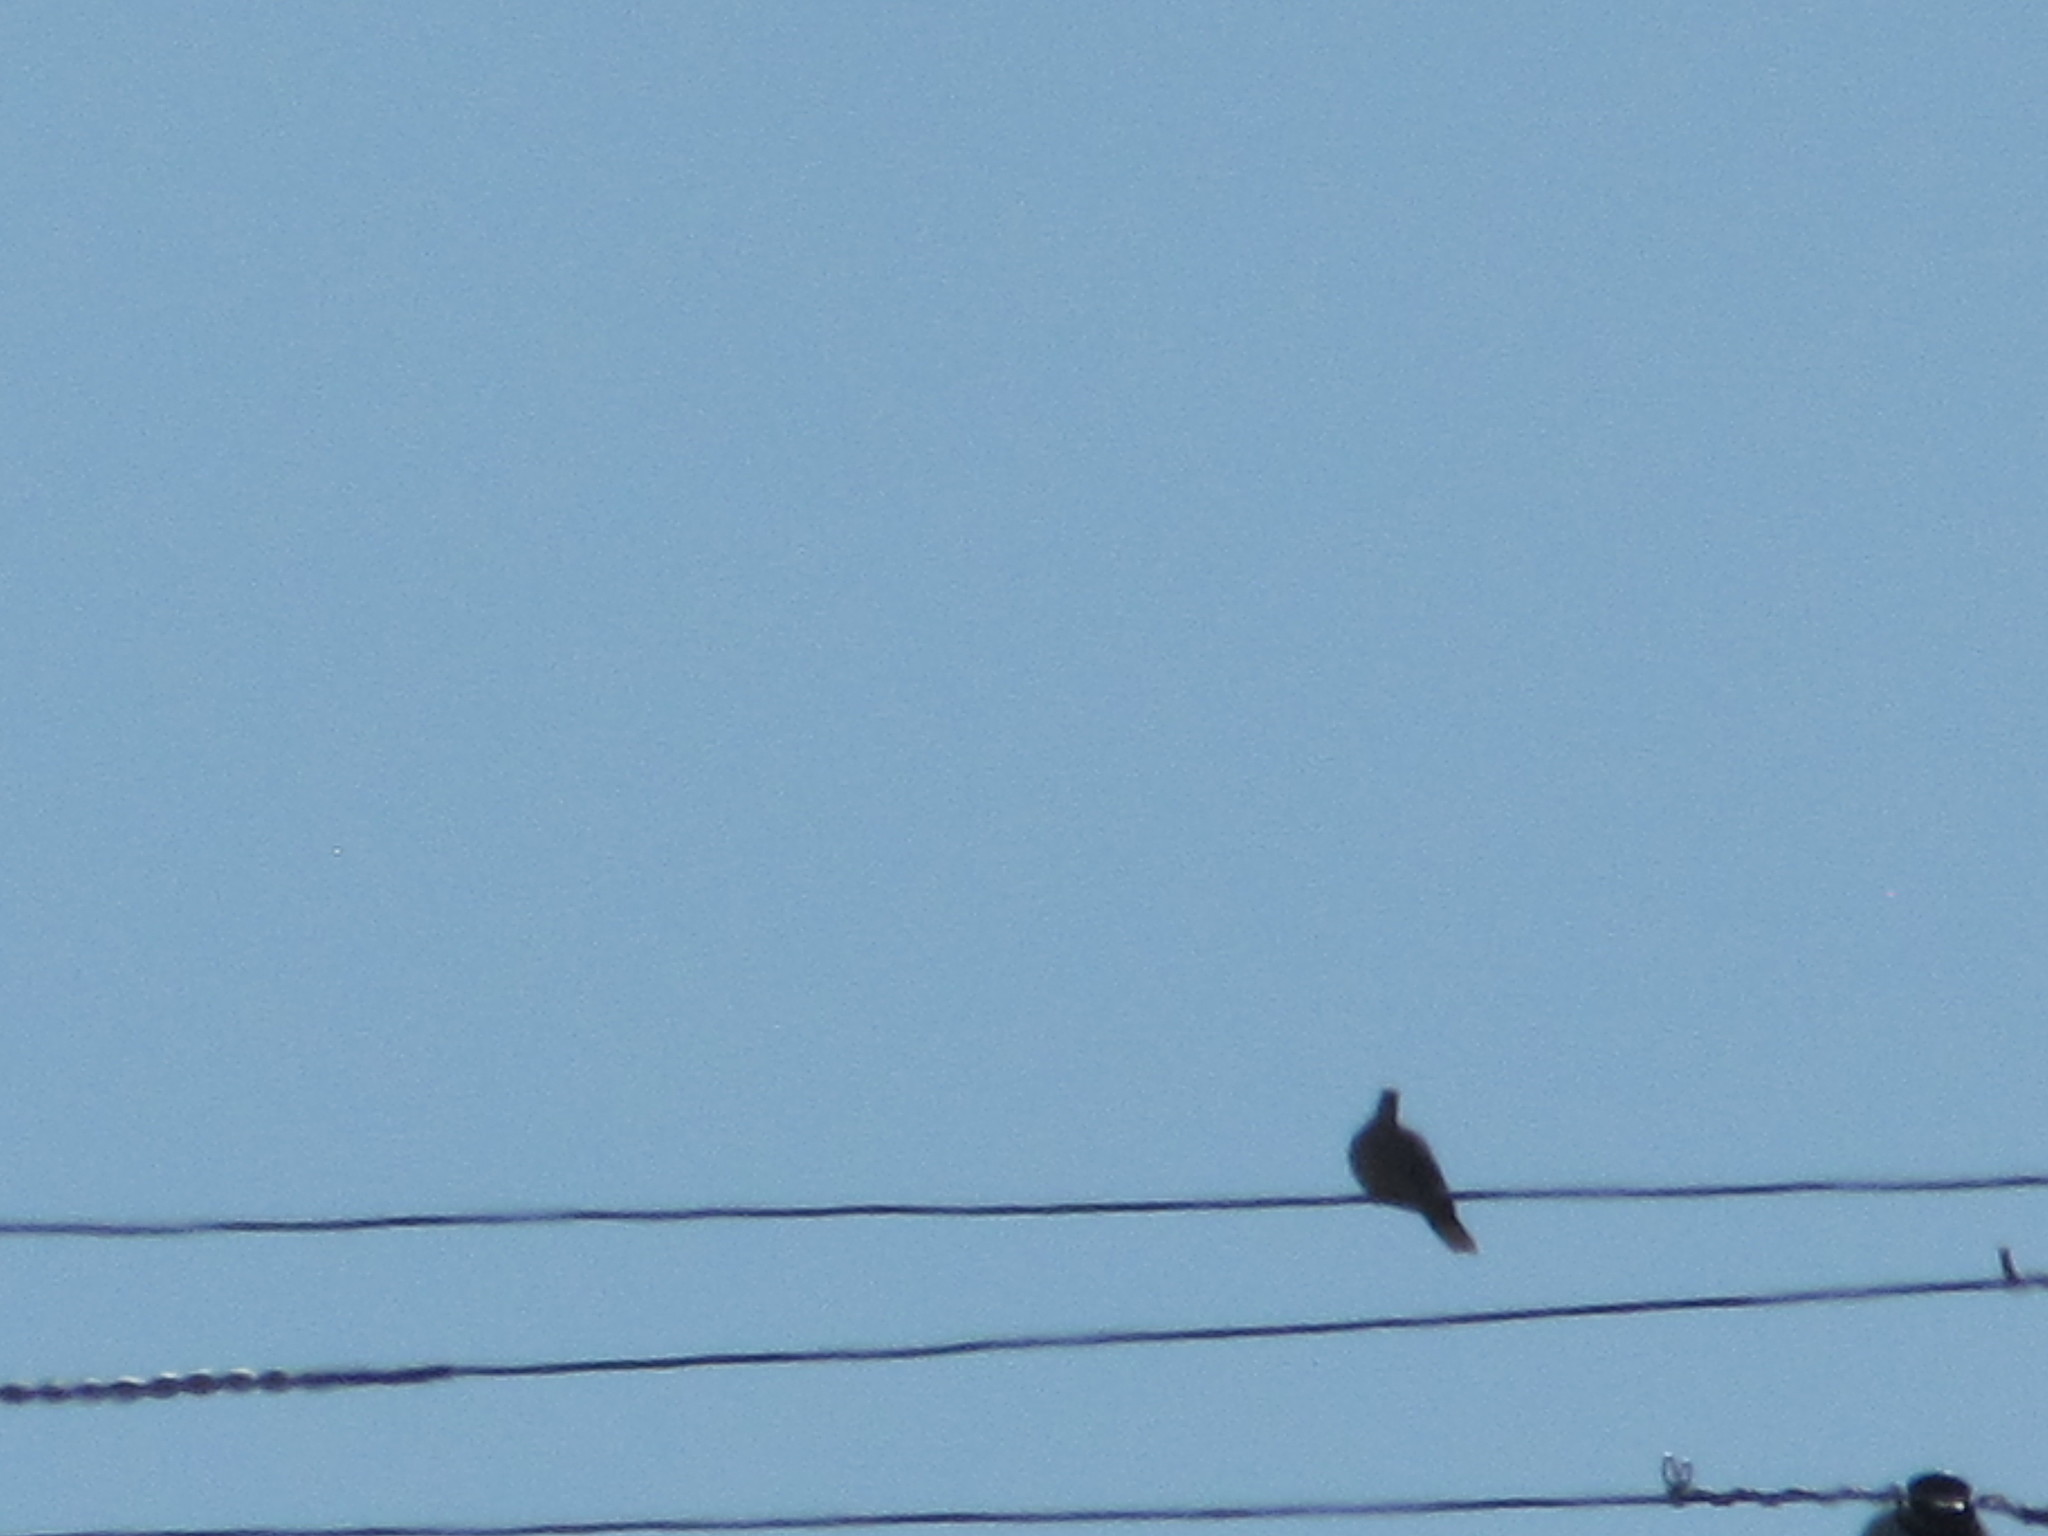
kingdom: Animalia
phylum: Chordata
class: Aves
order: Columbiformes
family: Columbidae
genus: Streptopelia
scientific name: Streptopelia decaocto
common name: Eurasian collared dove
